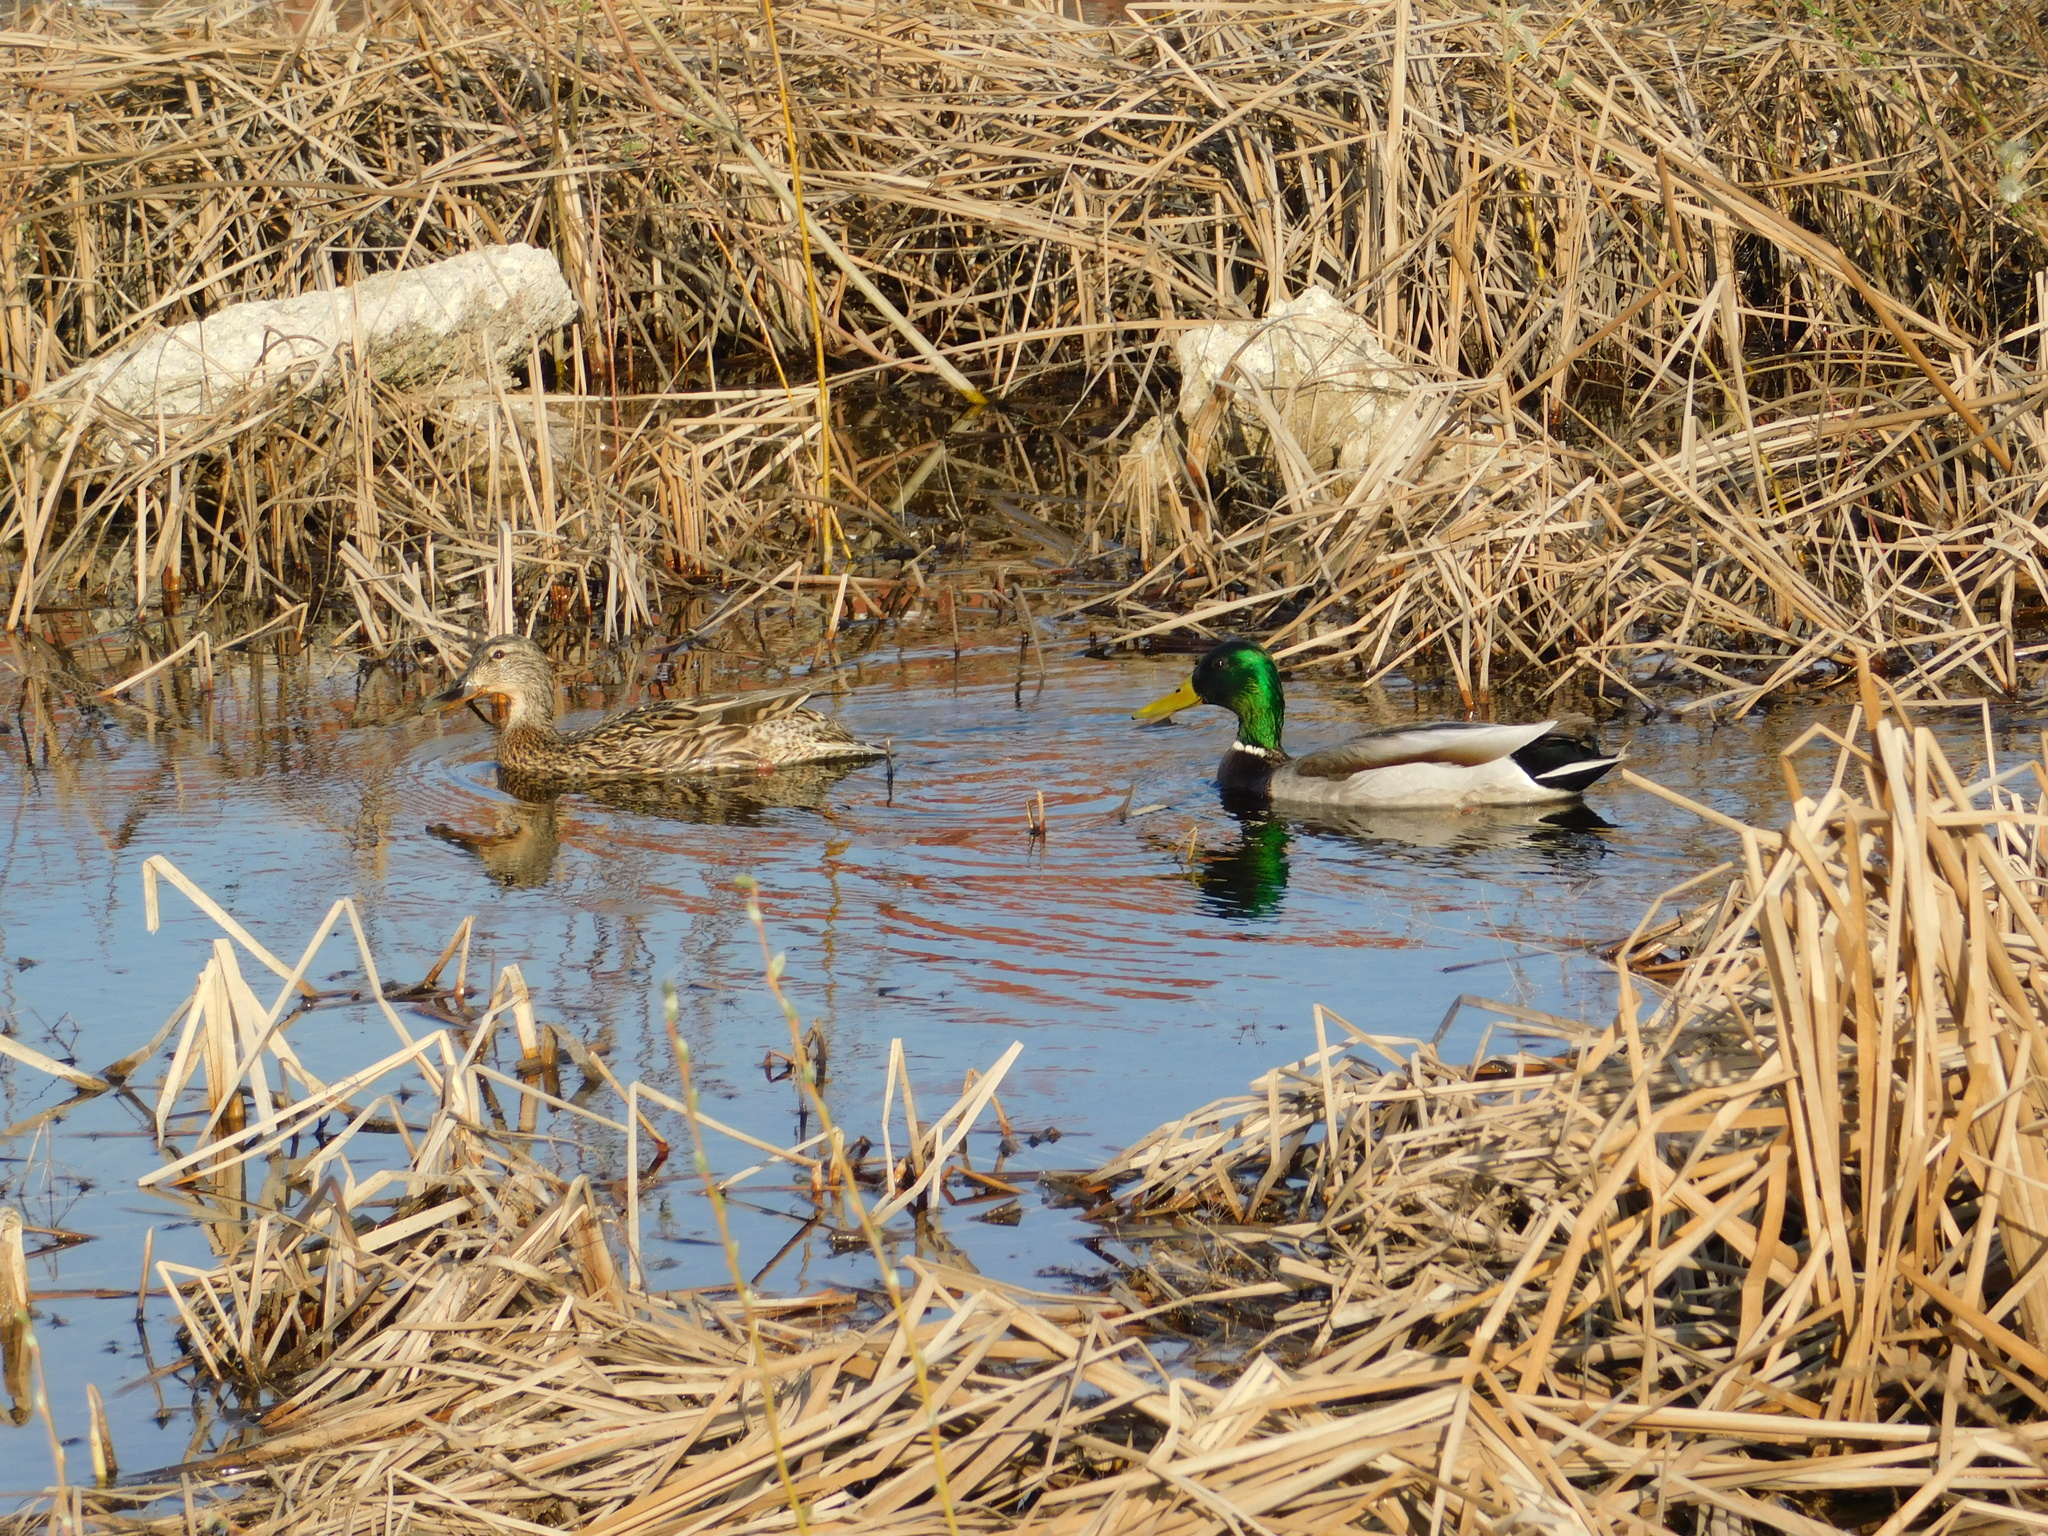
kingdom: Animalia
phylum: Chordata
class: Aves
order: Anseriformes
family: Anatidae
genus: Anas
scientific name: Anas platyrhynchos
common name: Mallard
